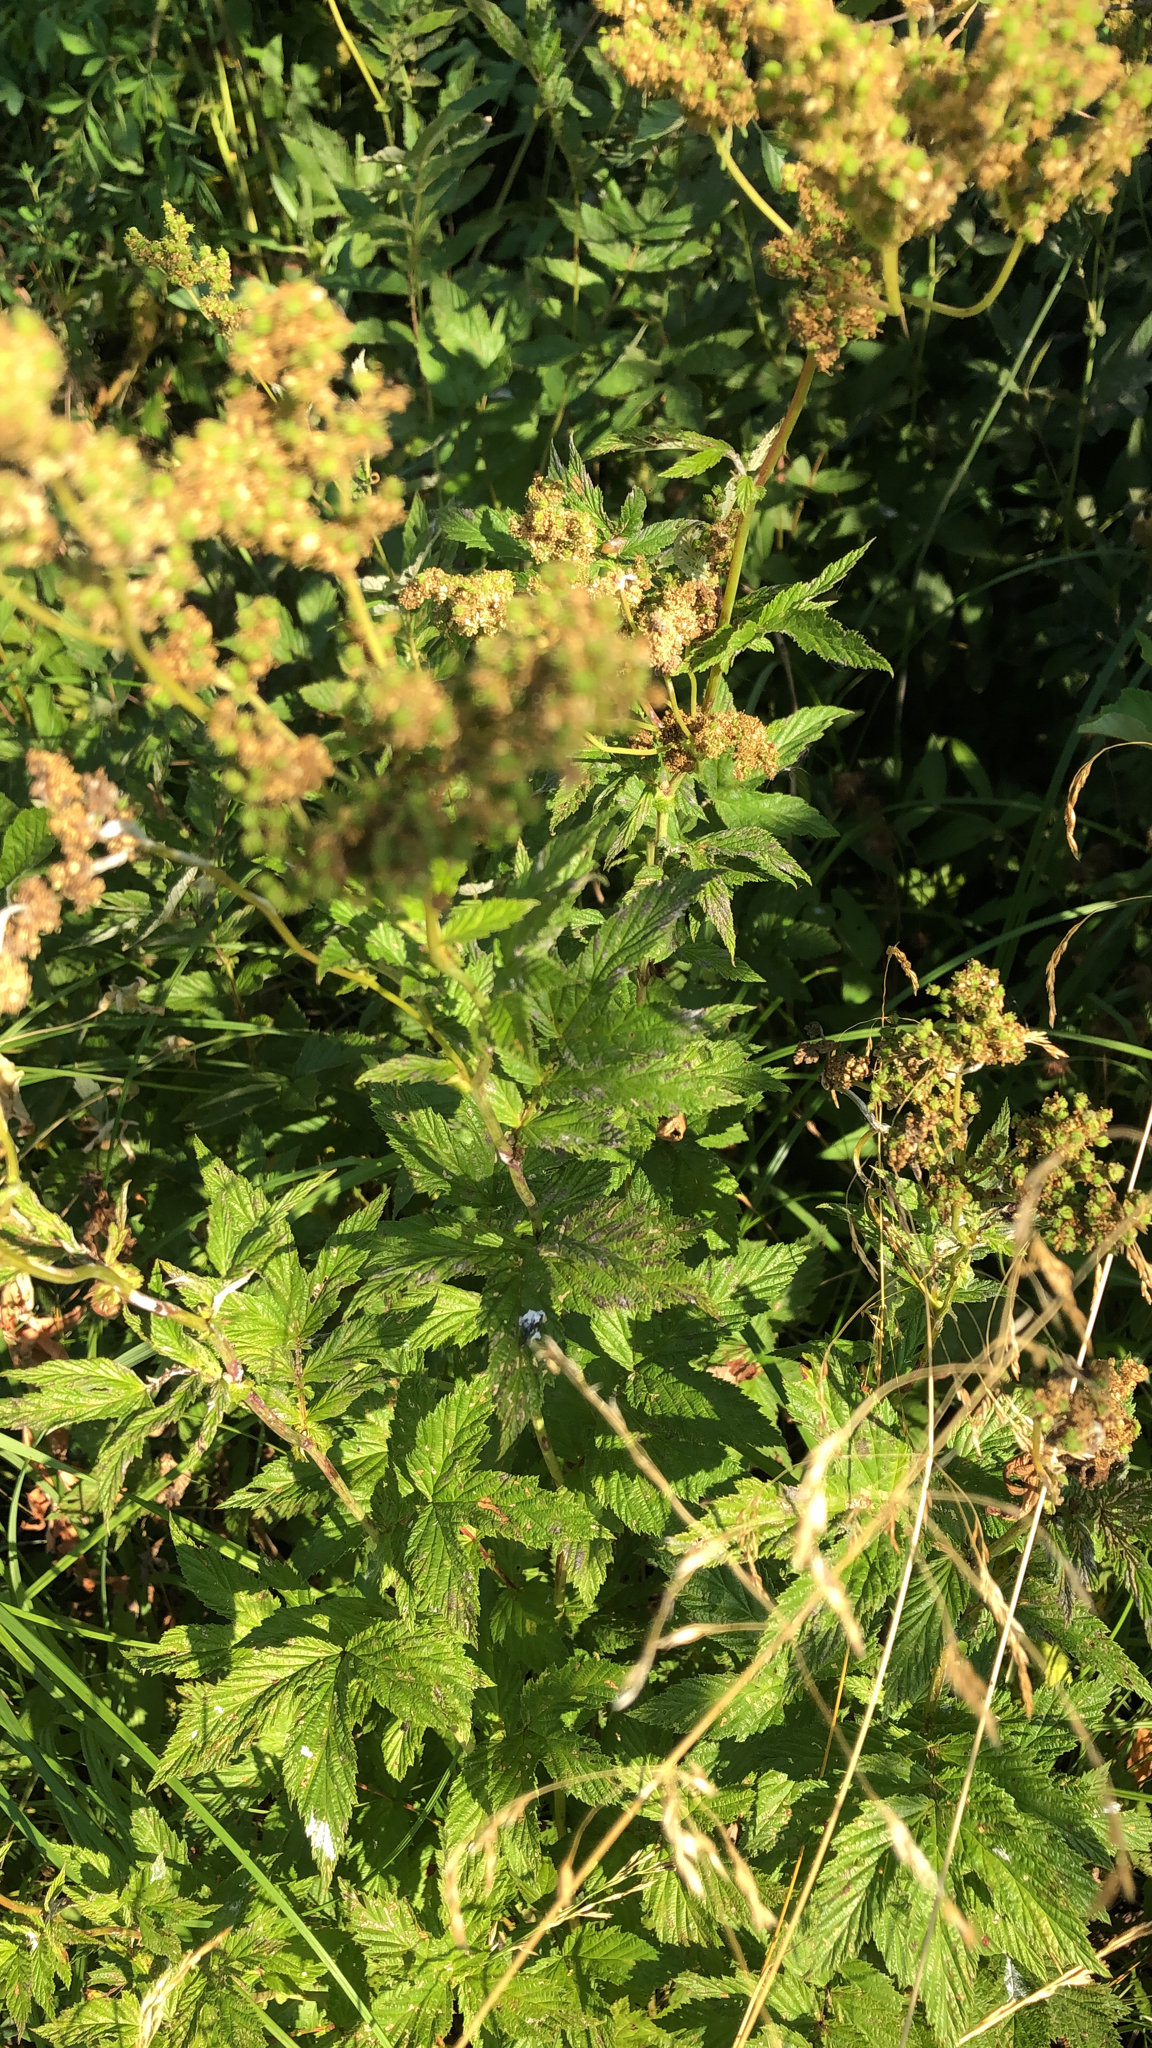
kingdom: Plantae
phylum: Tracheophyta
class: Magnoliopsida
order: Rosales
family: Rosaceae
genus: Filipendula
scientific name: Filipendula ulmaria
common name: Meadowsweet
